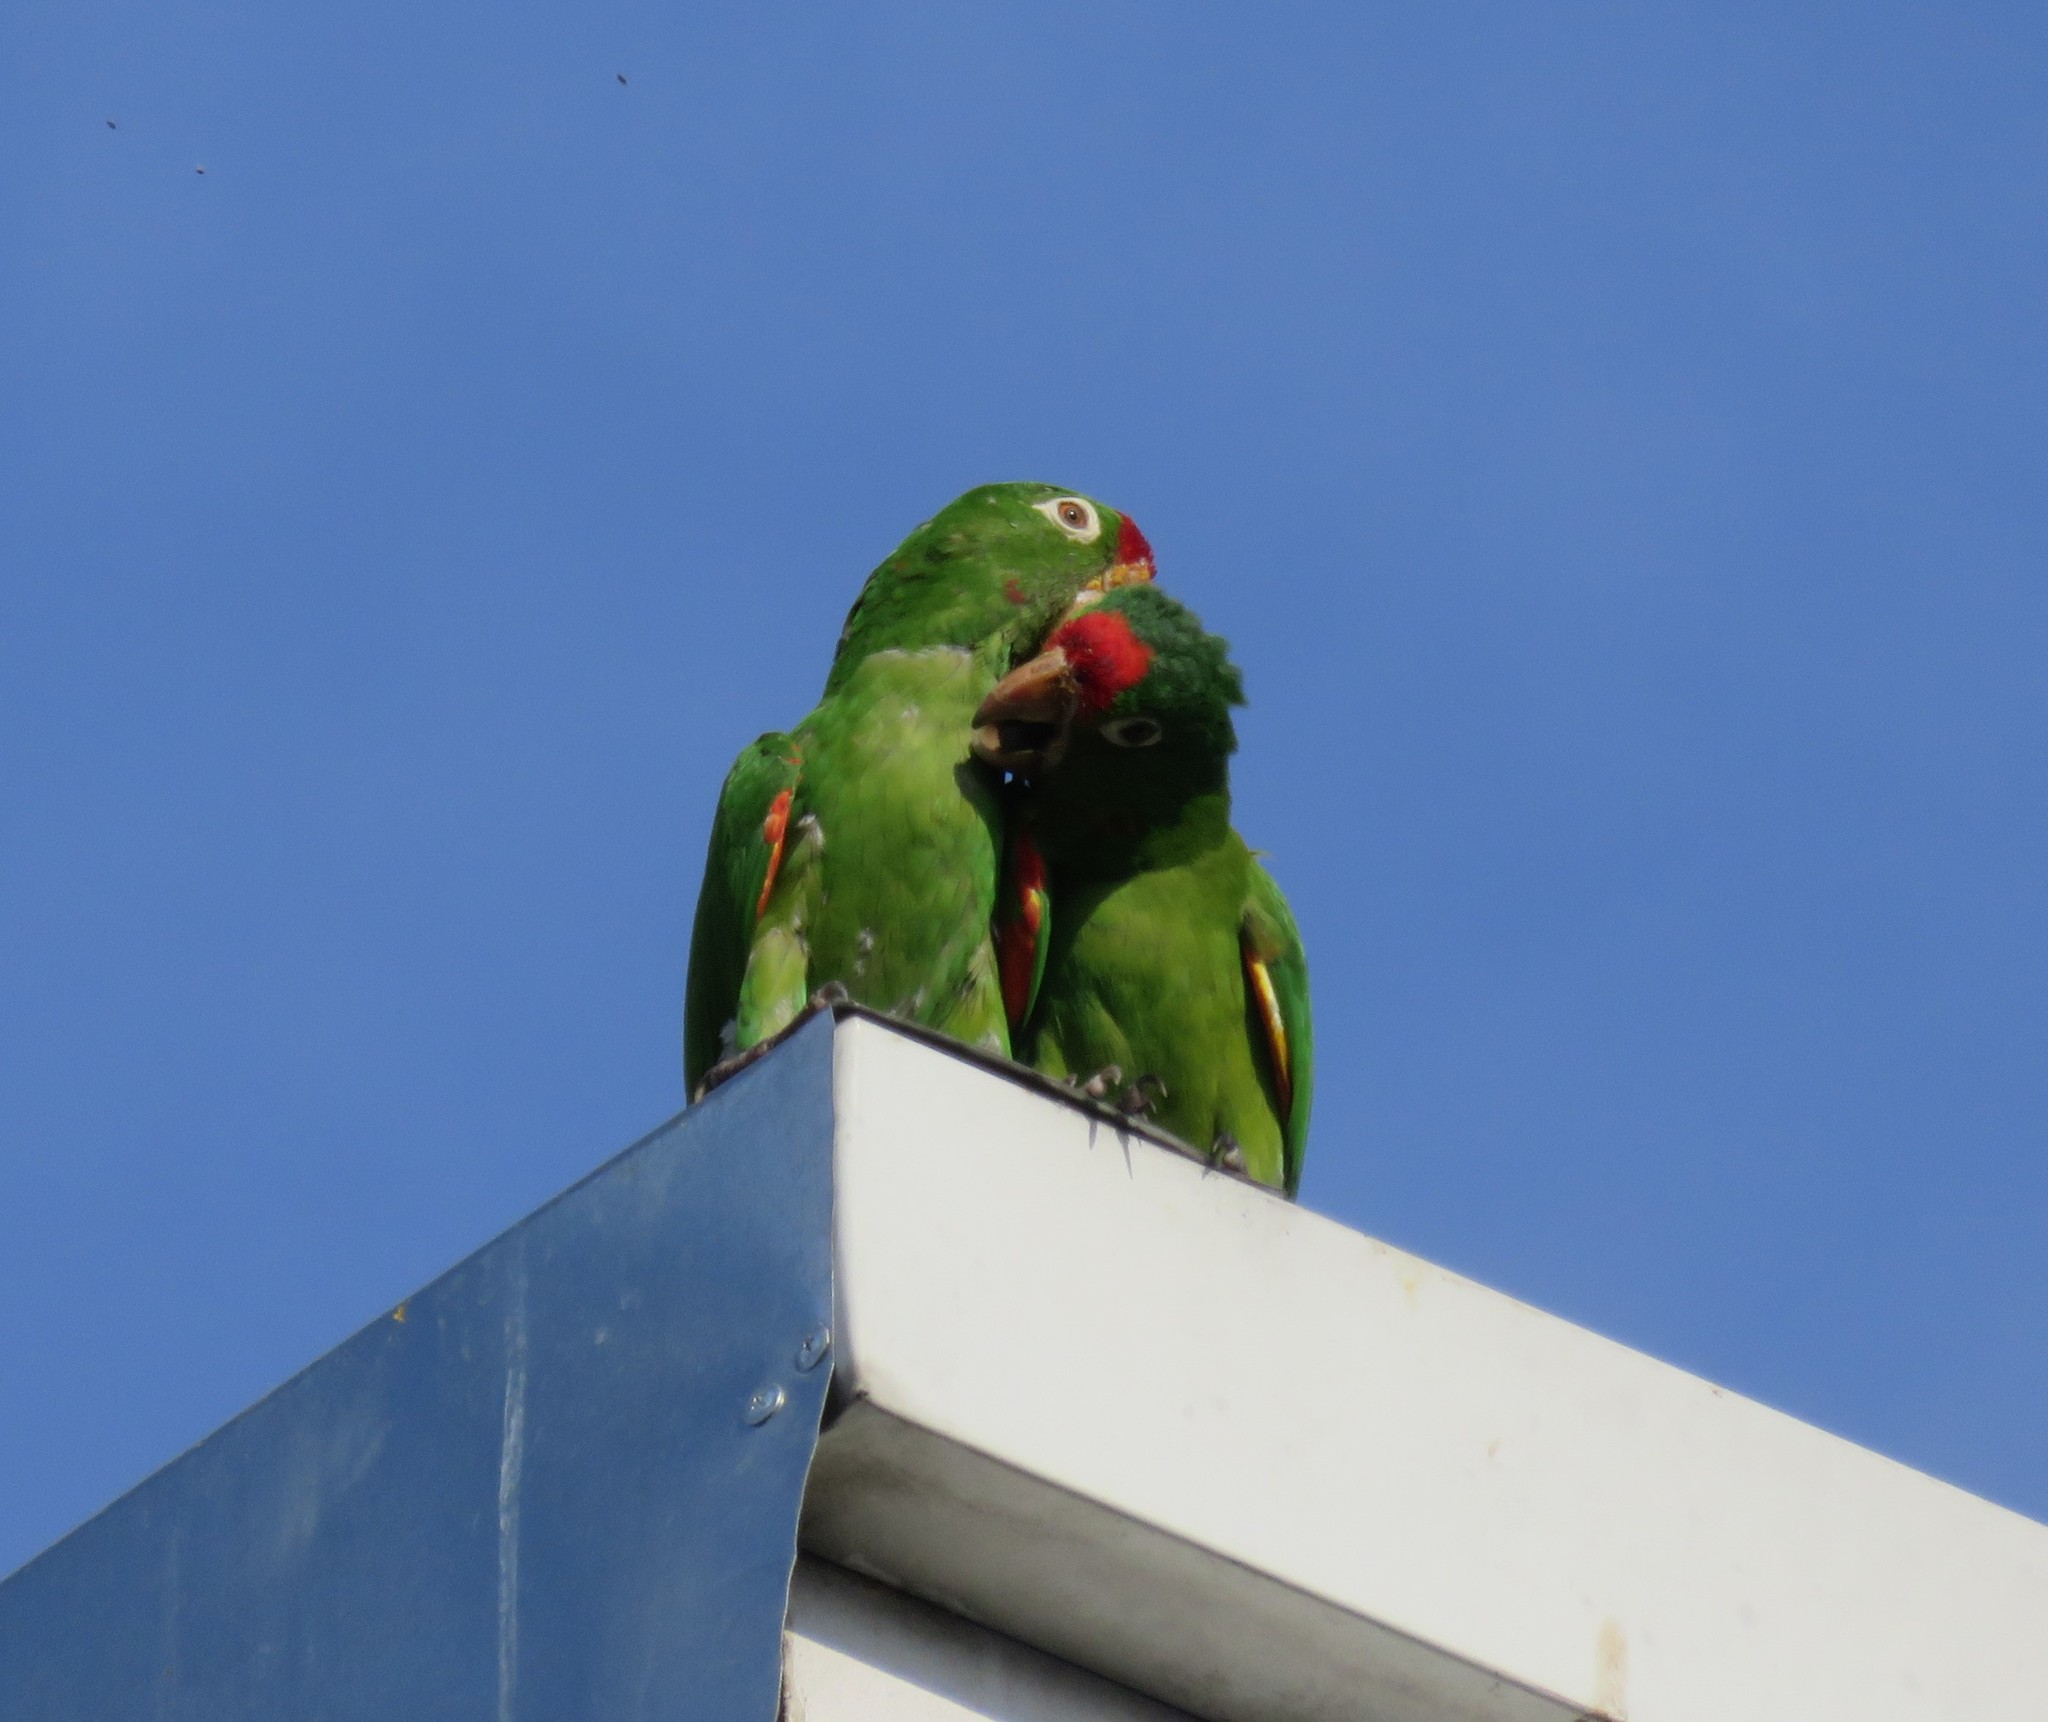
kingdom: Animalia
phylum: Chordata
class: Aves
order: Psittaciformes
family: Psittacidae
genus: Aratinga
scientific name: Aratinga finschi
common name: Crimson-fronted parakeet
